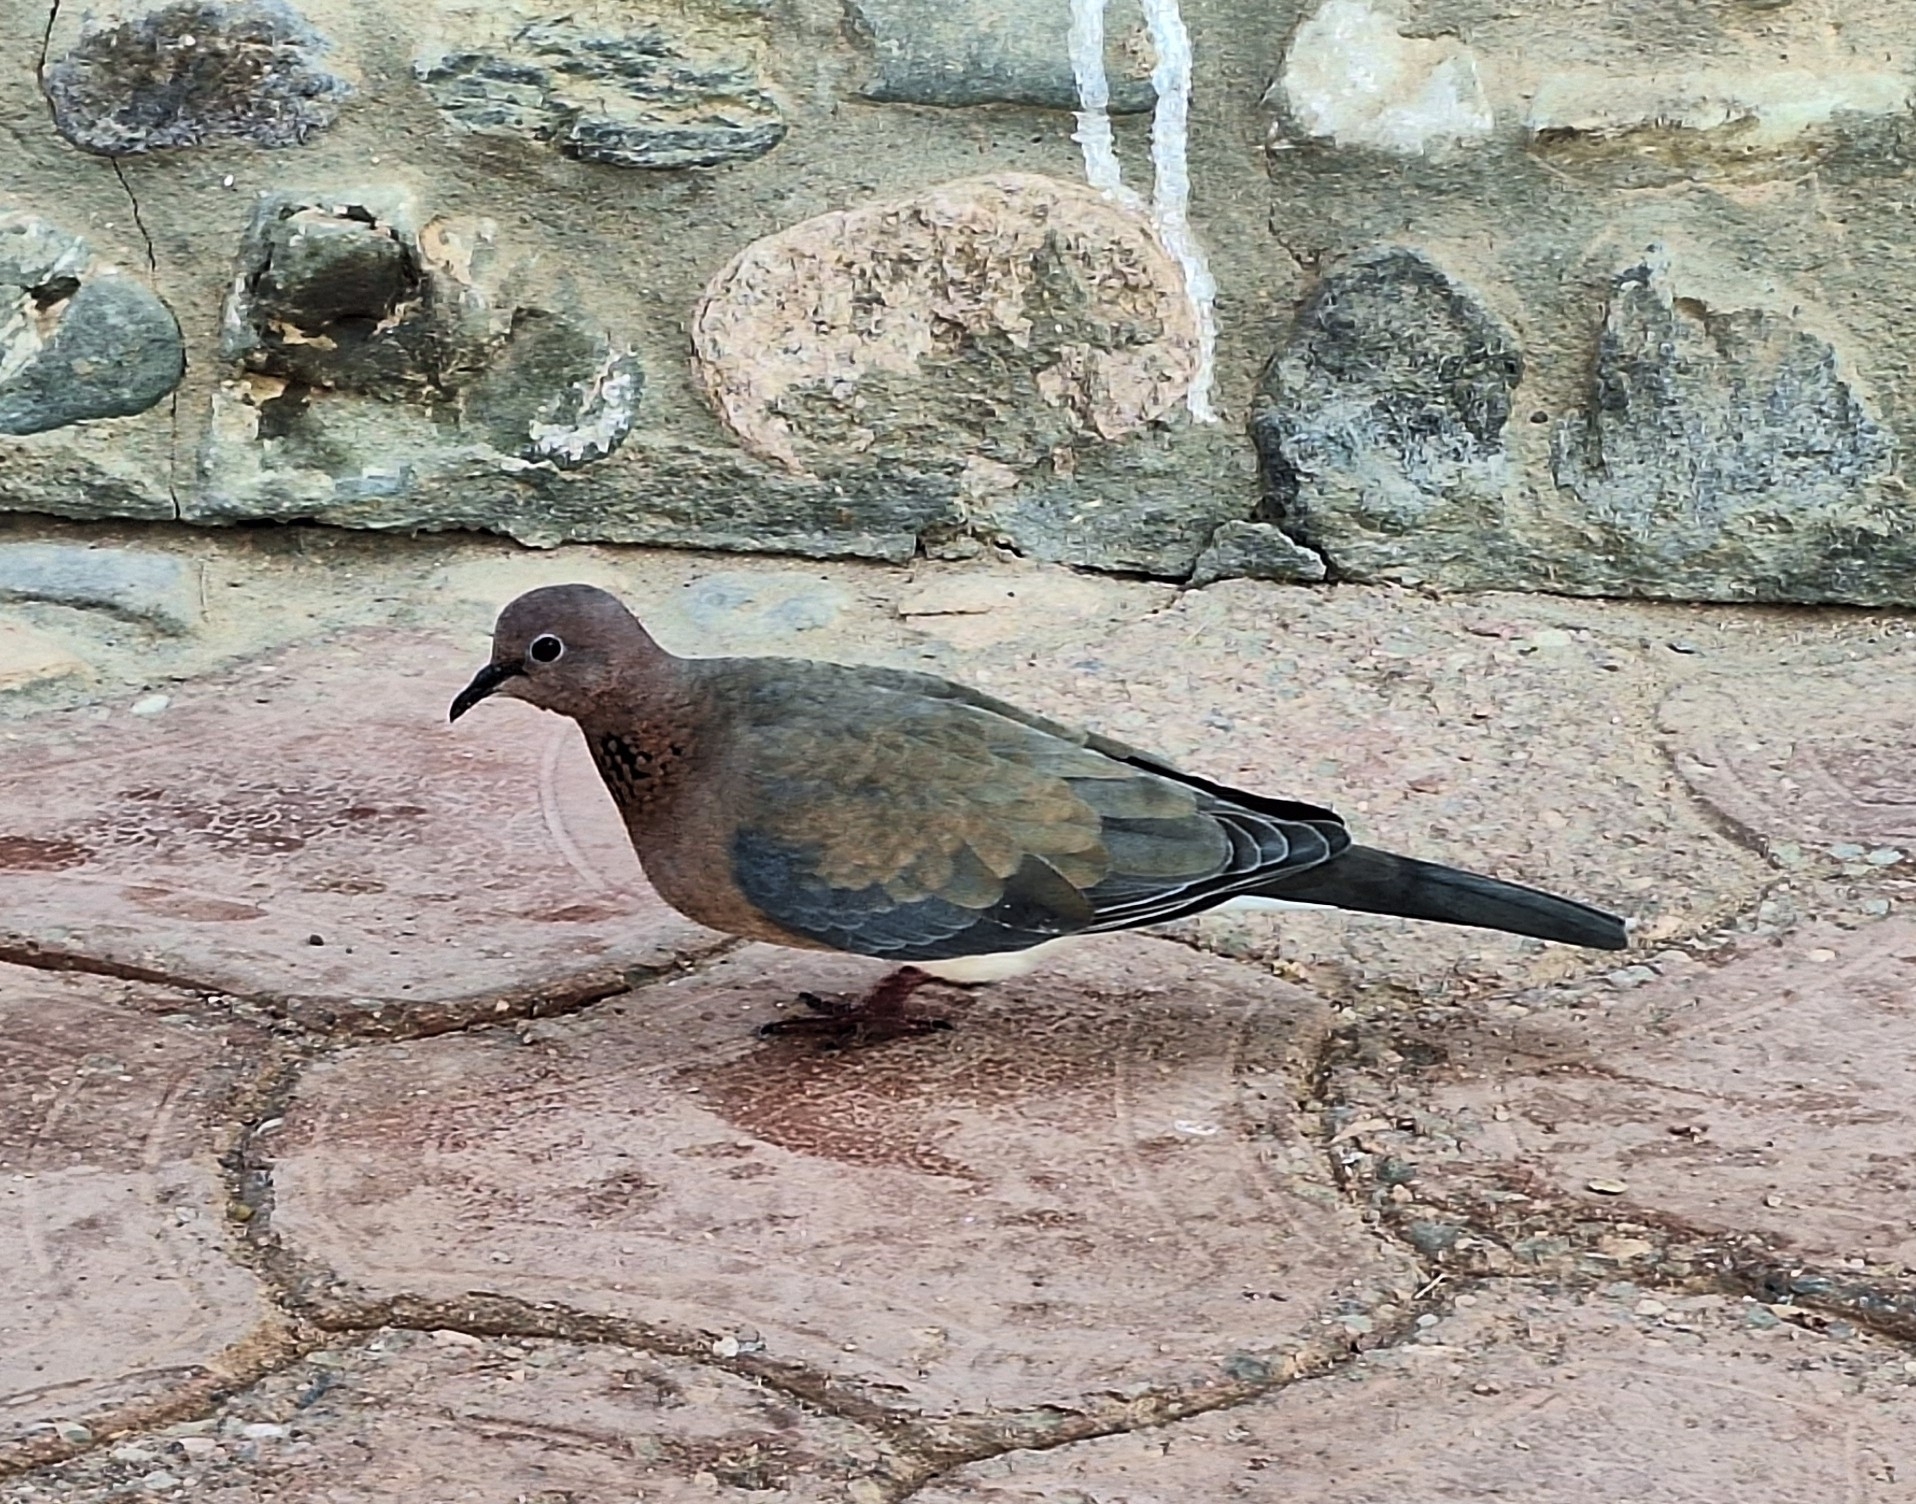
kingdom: Animalia
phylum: Chordata
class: Aves
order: Columbiformes
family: Columbidae
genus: Spilopelia
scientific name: Spilopelia senegalensis
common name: Laughing dove
